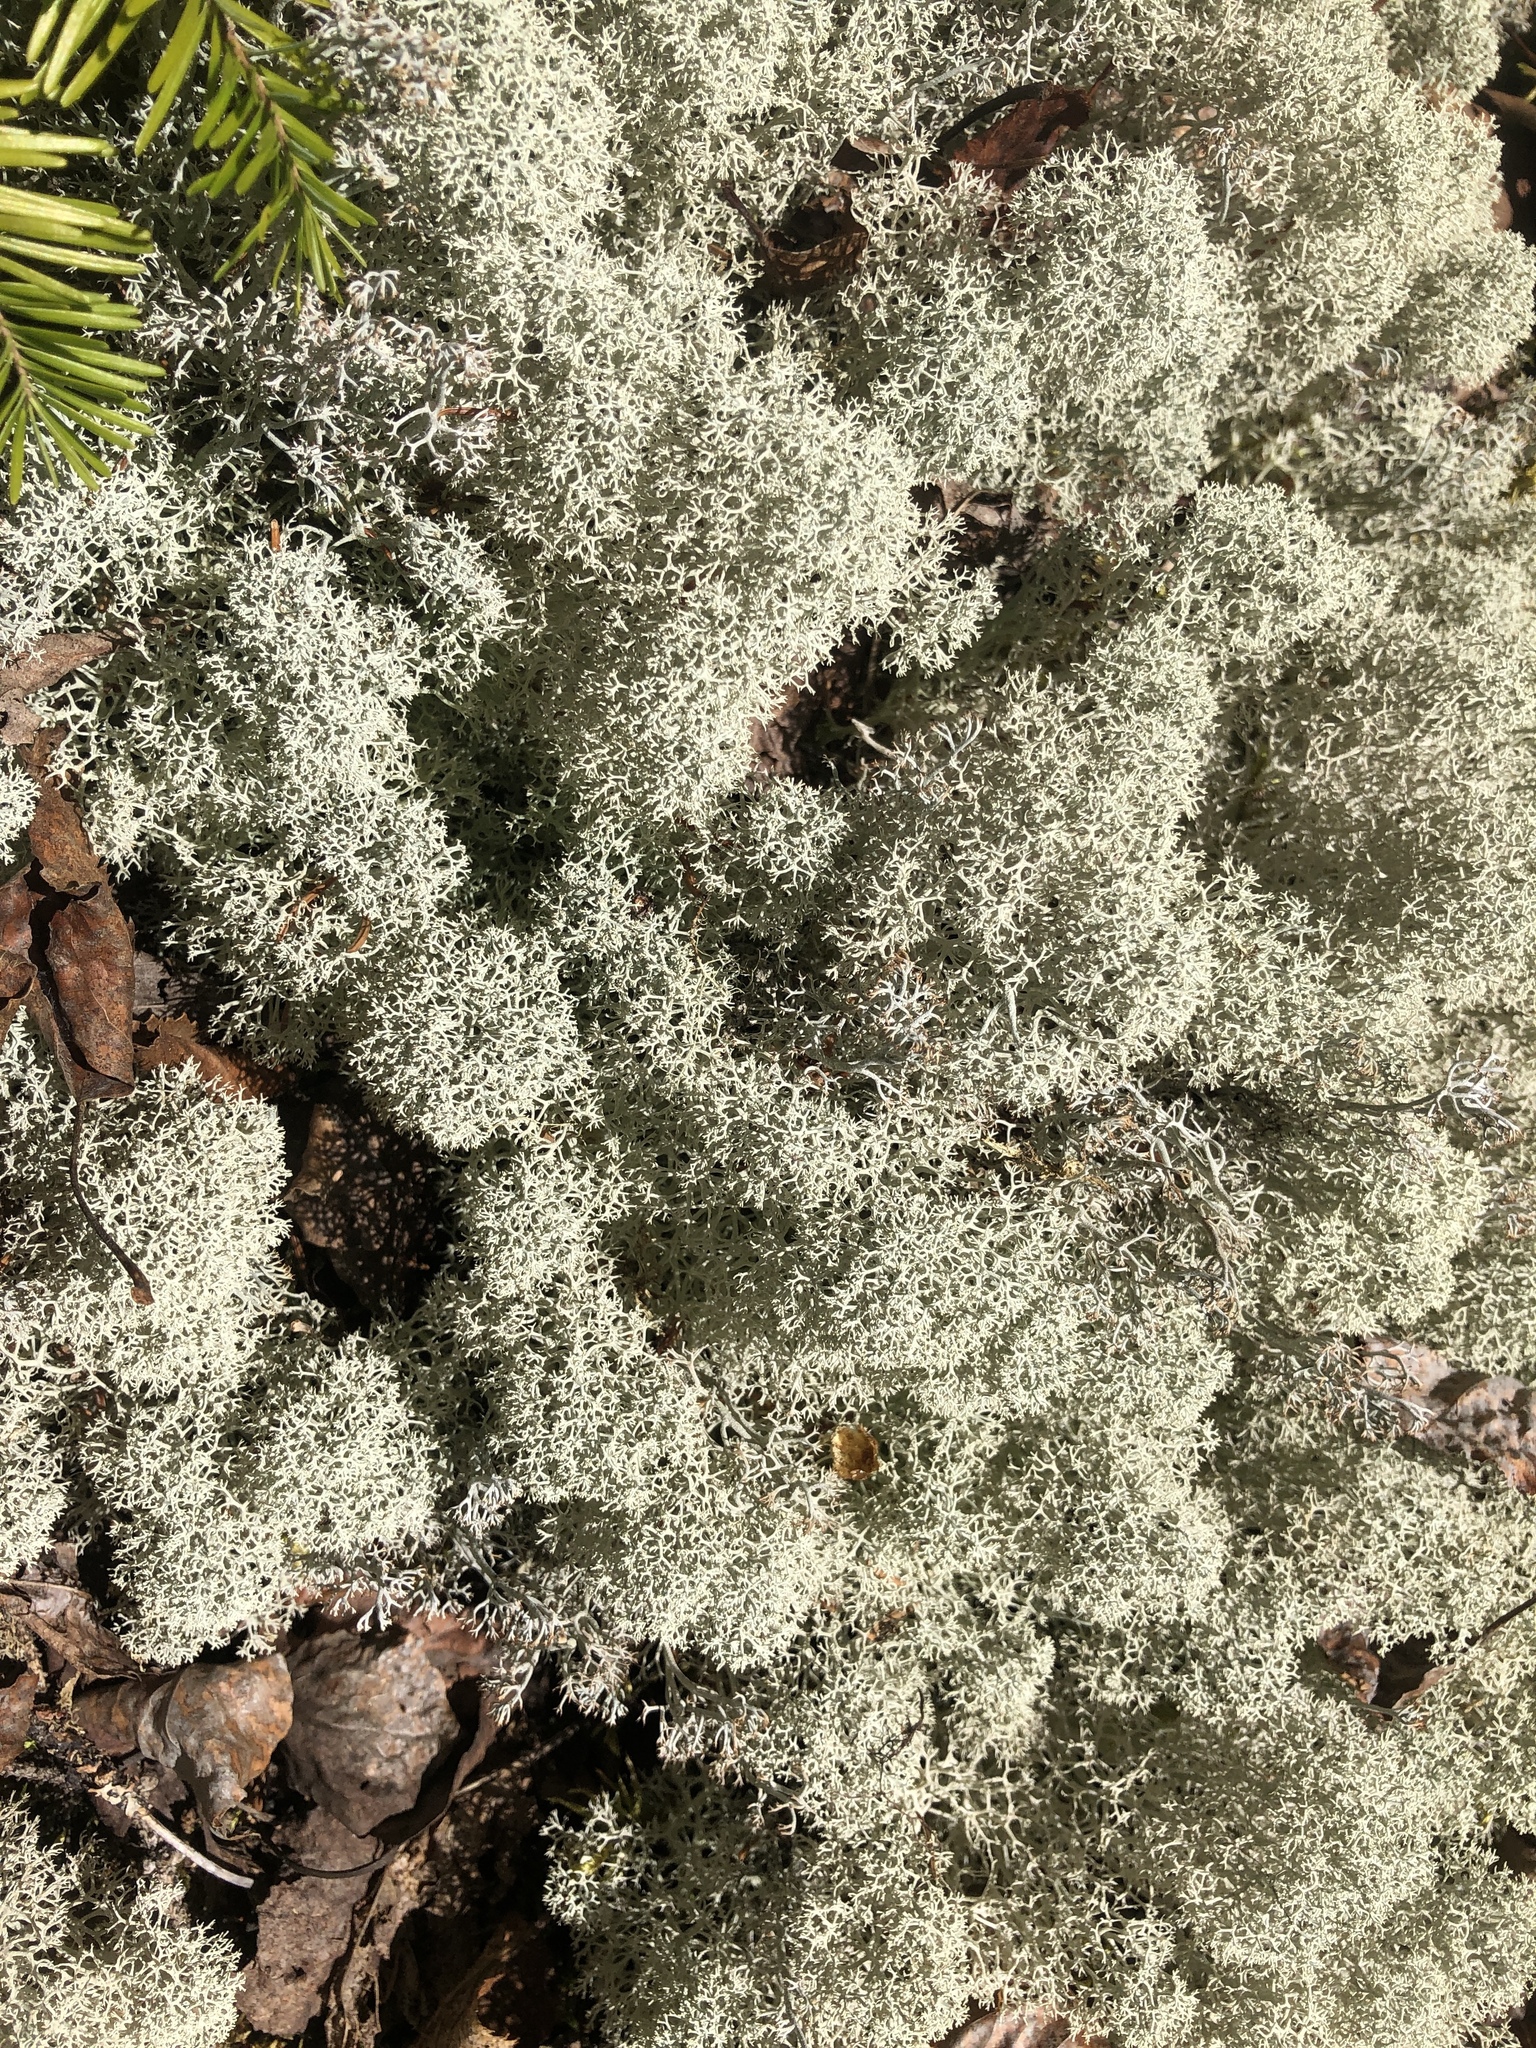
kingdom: Fungi
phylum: Ascomycota
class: Lecanoromycetes
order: Lecanorales
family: Cladoniaceae
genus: Cladonia
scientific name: Cladonia stellaris
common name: Star-tipped reindeer lichen
